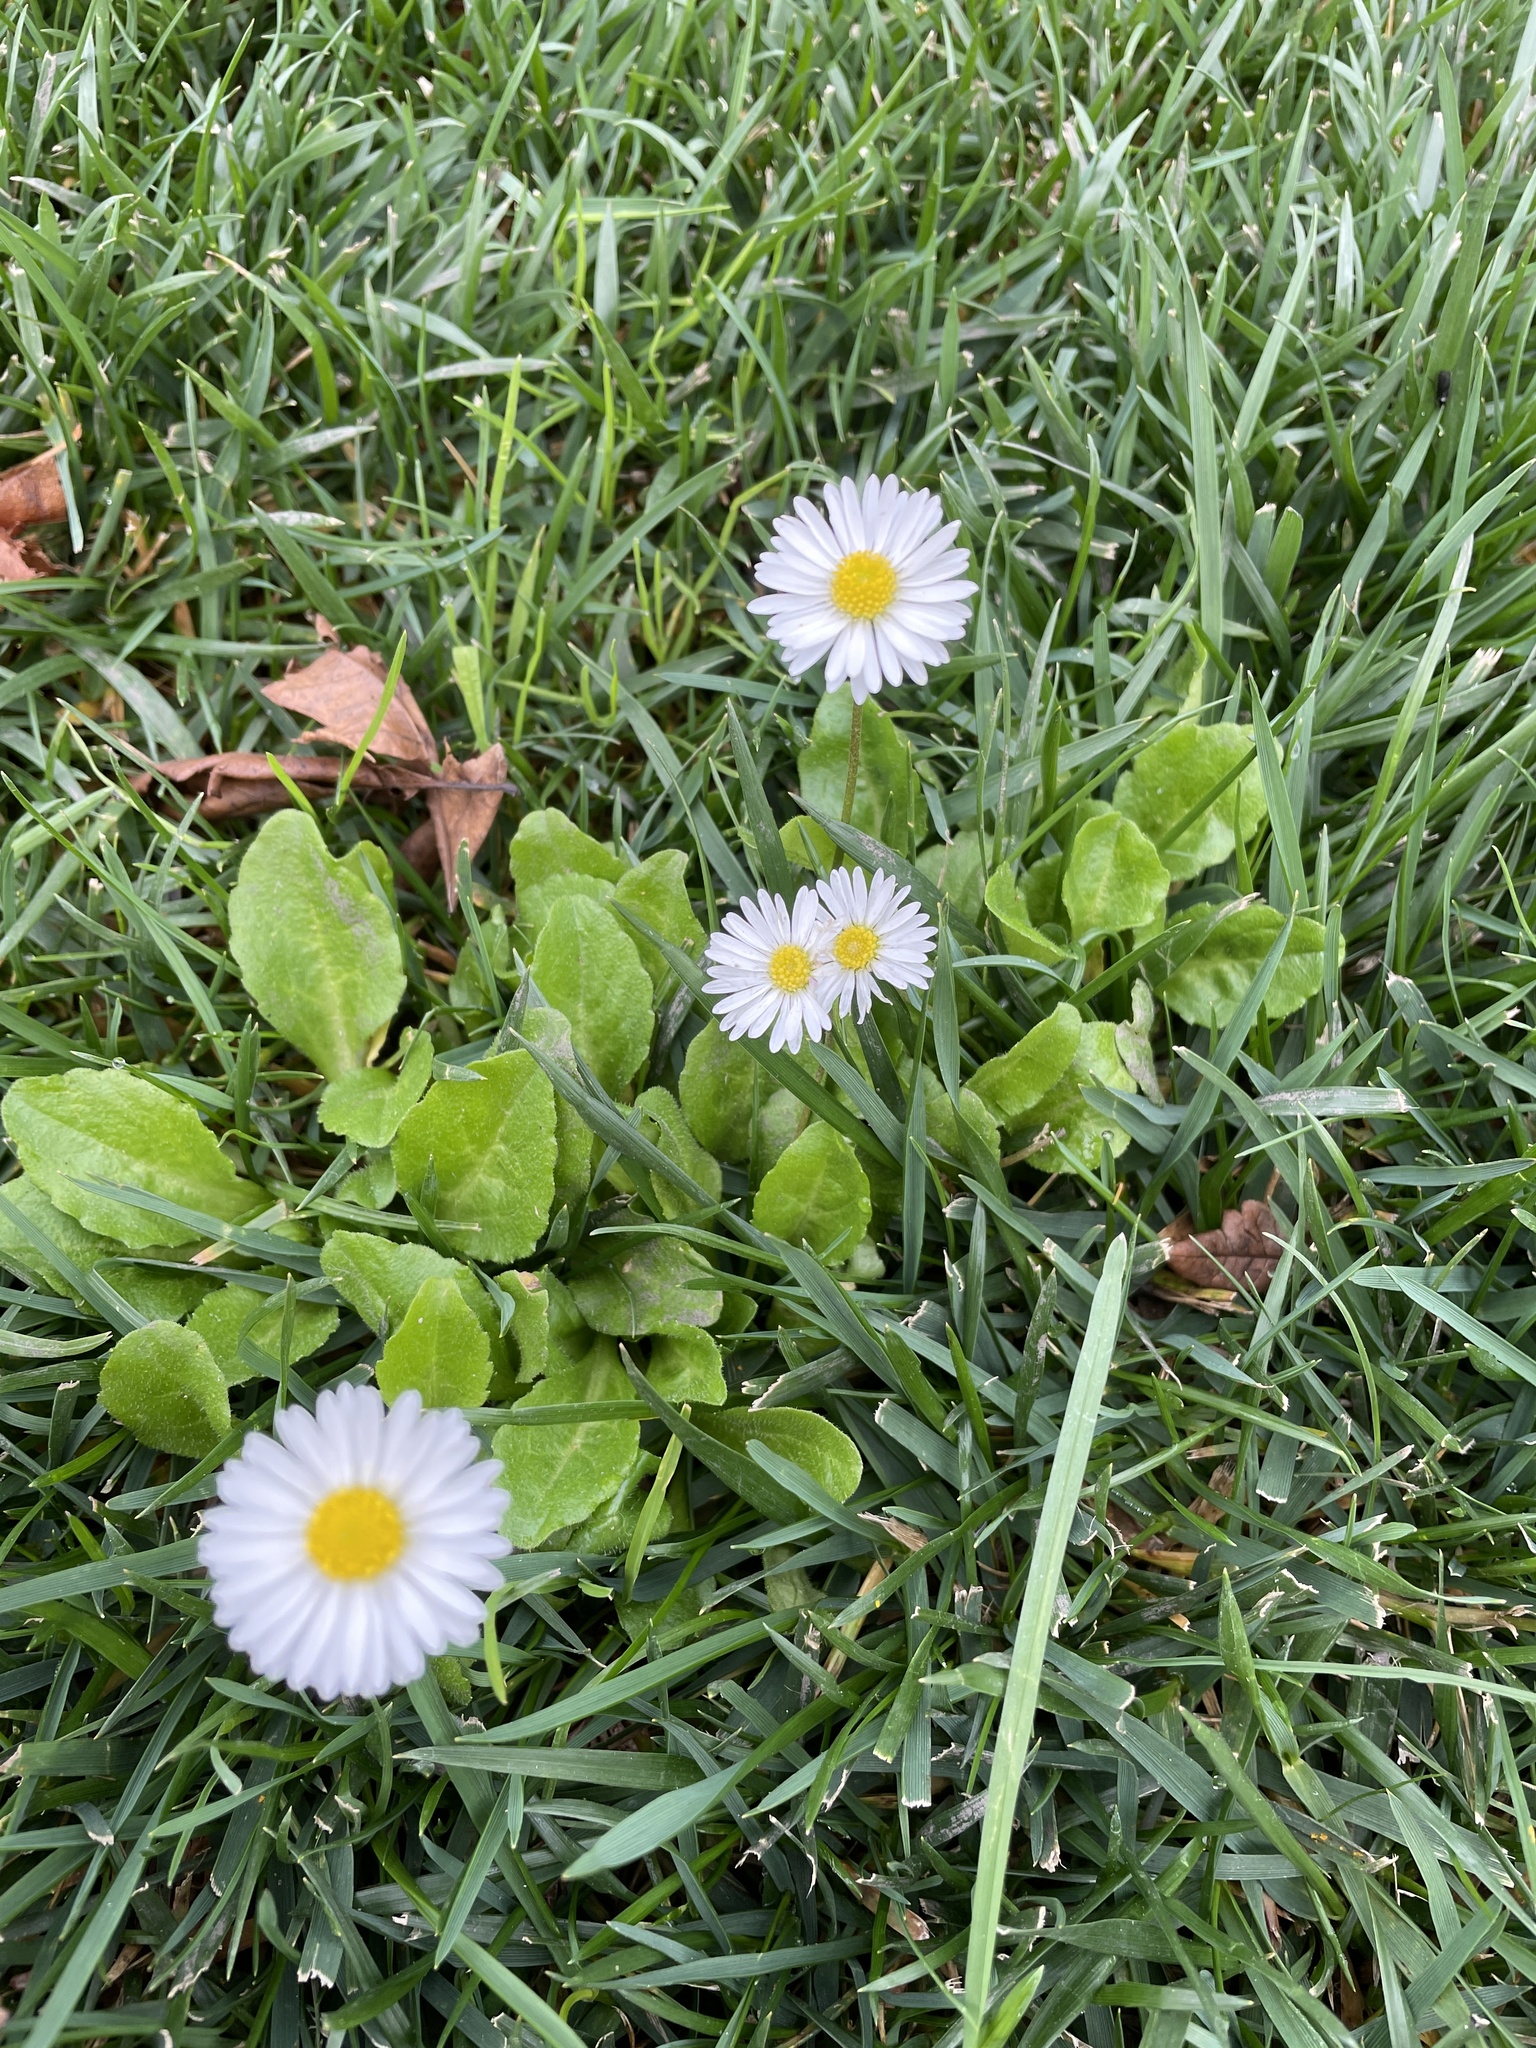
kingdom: Plantae
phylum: Tracheophyta
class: Magnoliopsida
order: Asterales
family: Asteraceae
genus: Bellis
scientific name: Bellis perennis
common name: Lawndaisy
